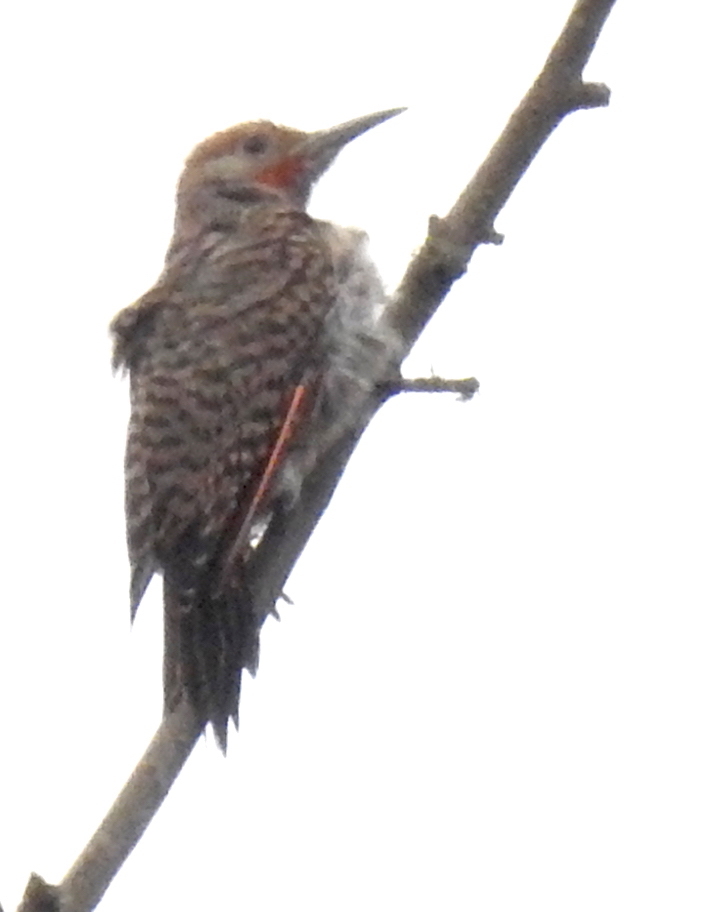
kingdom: Animalia
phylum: Chordata
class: Aves
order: Piciformes
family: Picidae
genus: Colaptes
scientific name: Colaptes auratus
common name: Northern flicker
